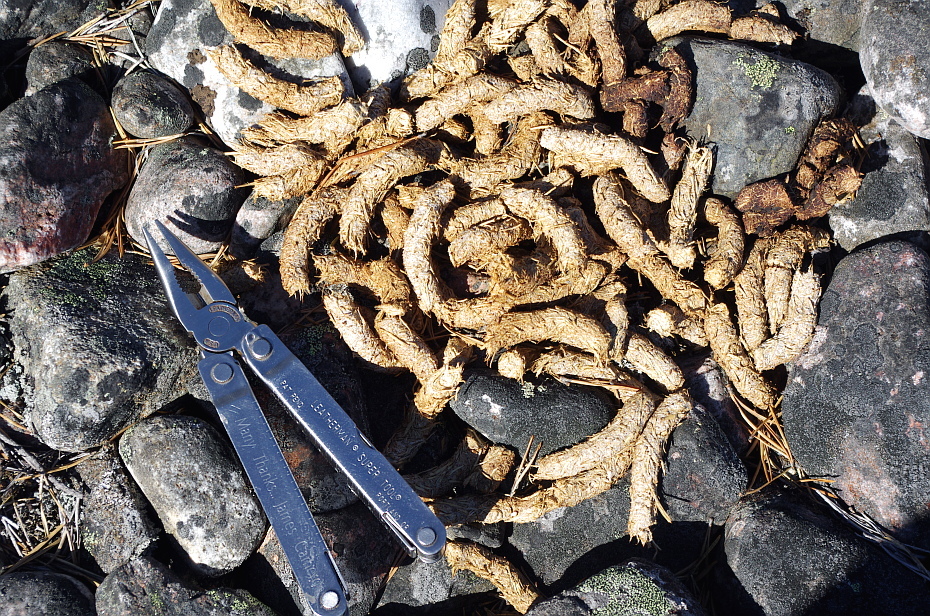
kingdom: Animalia
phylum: Chordata
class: Aves
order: Galliformes
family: Phasianidae
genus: Tetrao
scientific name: Tetrao urogallus
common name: Western capercaillie
